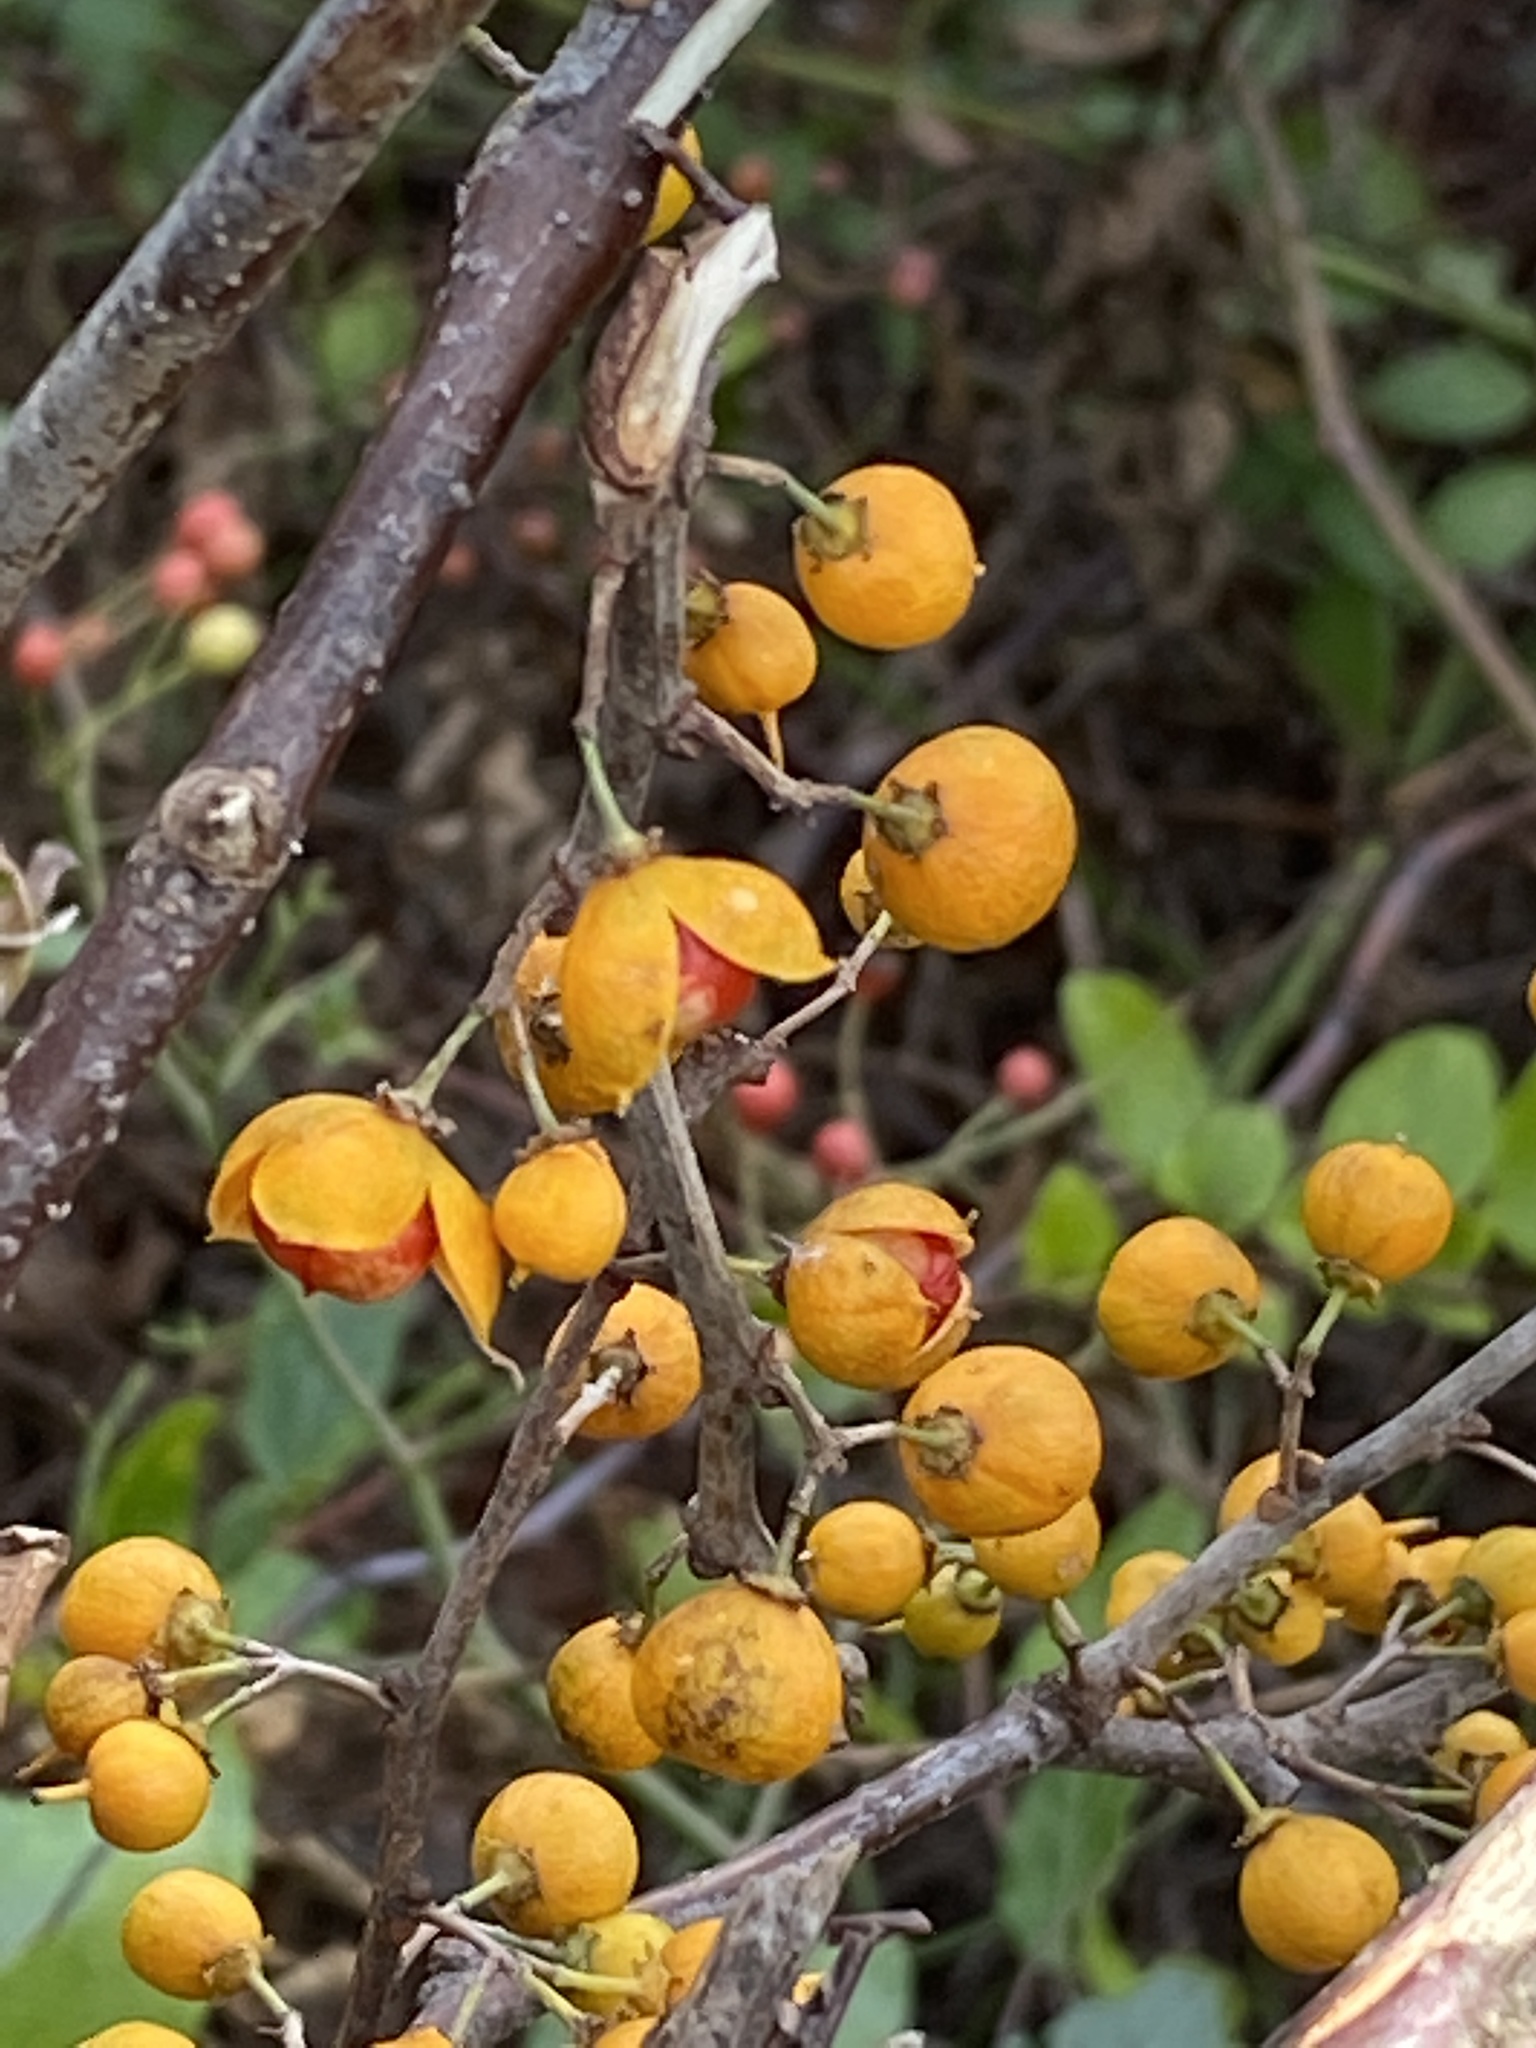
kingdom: Plantae
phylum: Tracheophyta
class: Magnoliopsida
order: Celastrales
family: Celastraceae
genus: Celastrus
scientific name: Celastrus orbiculatus
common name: Oriental bittersweet
